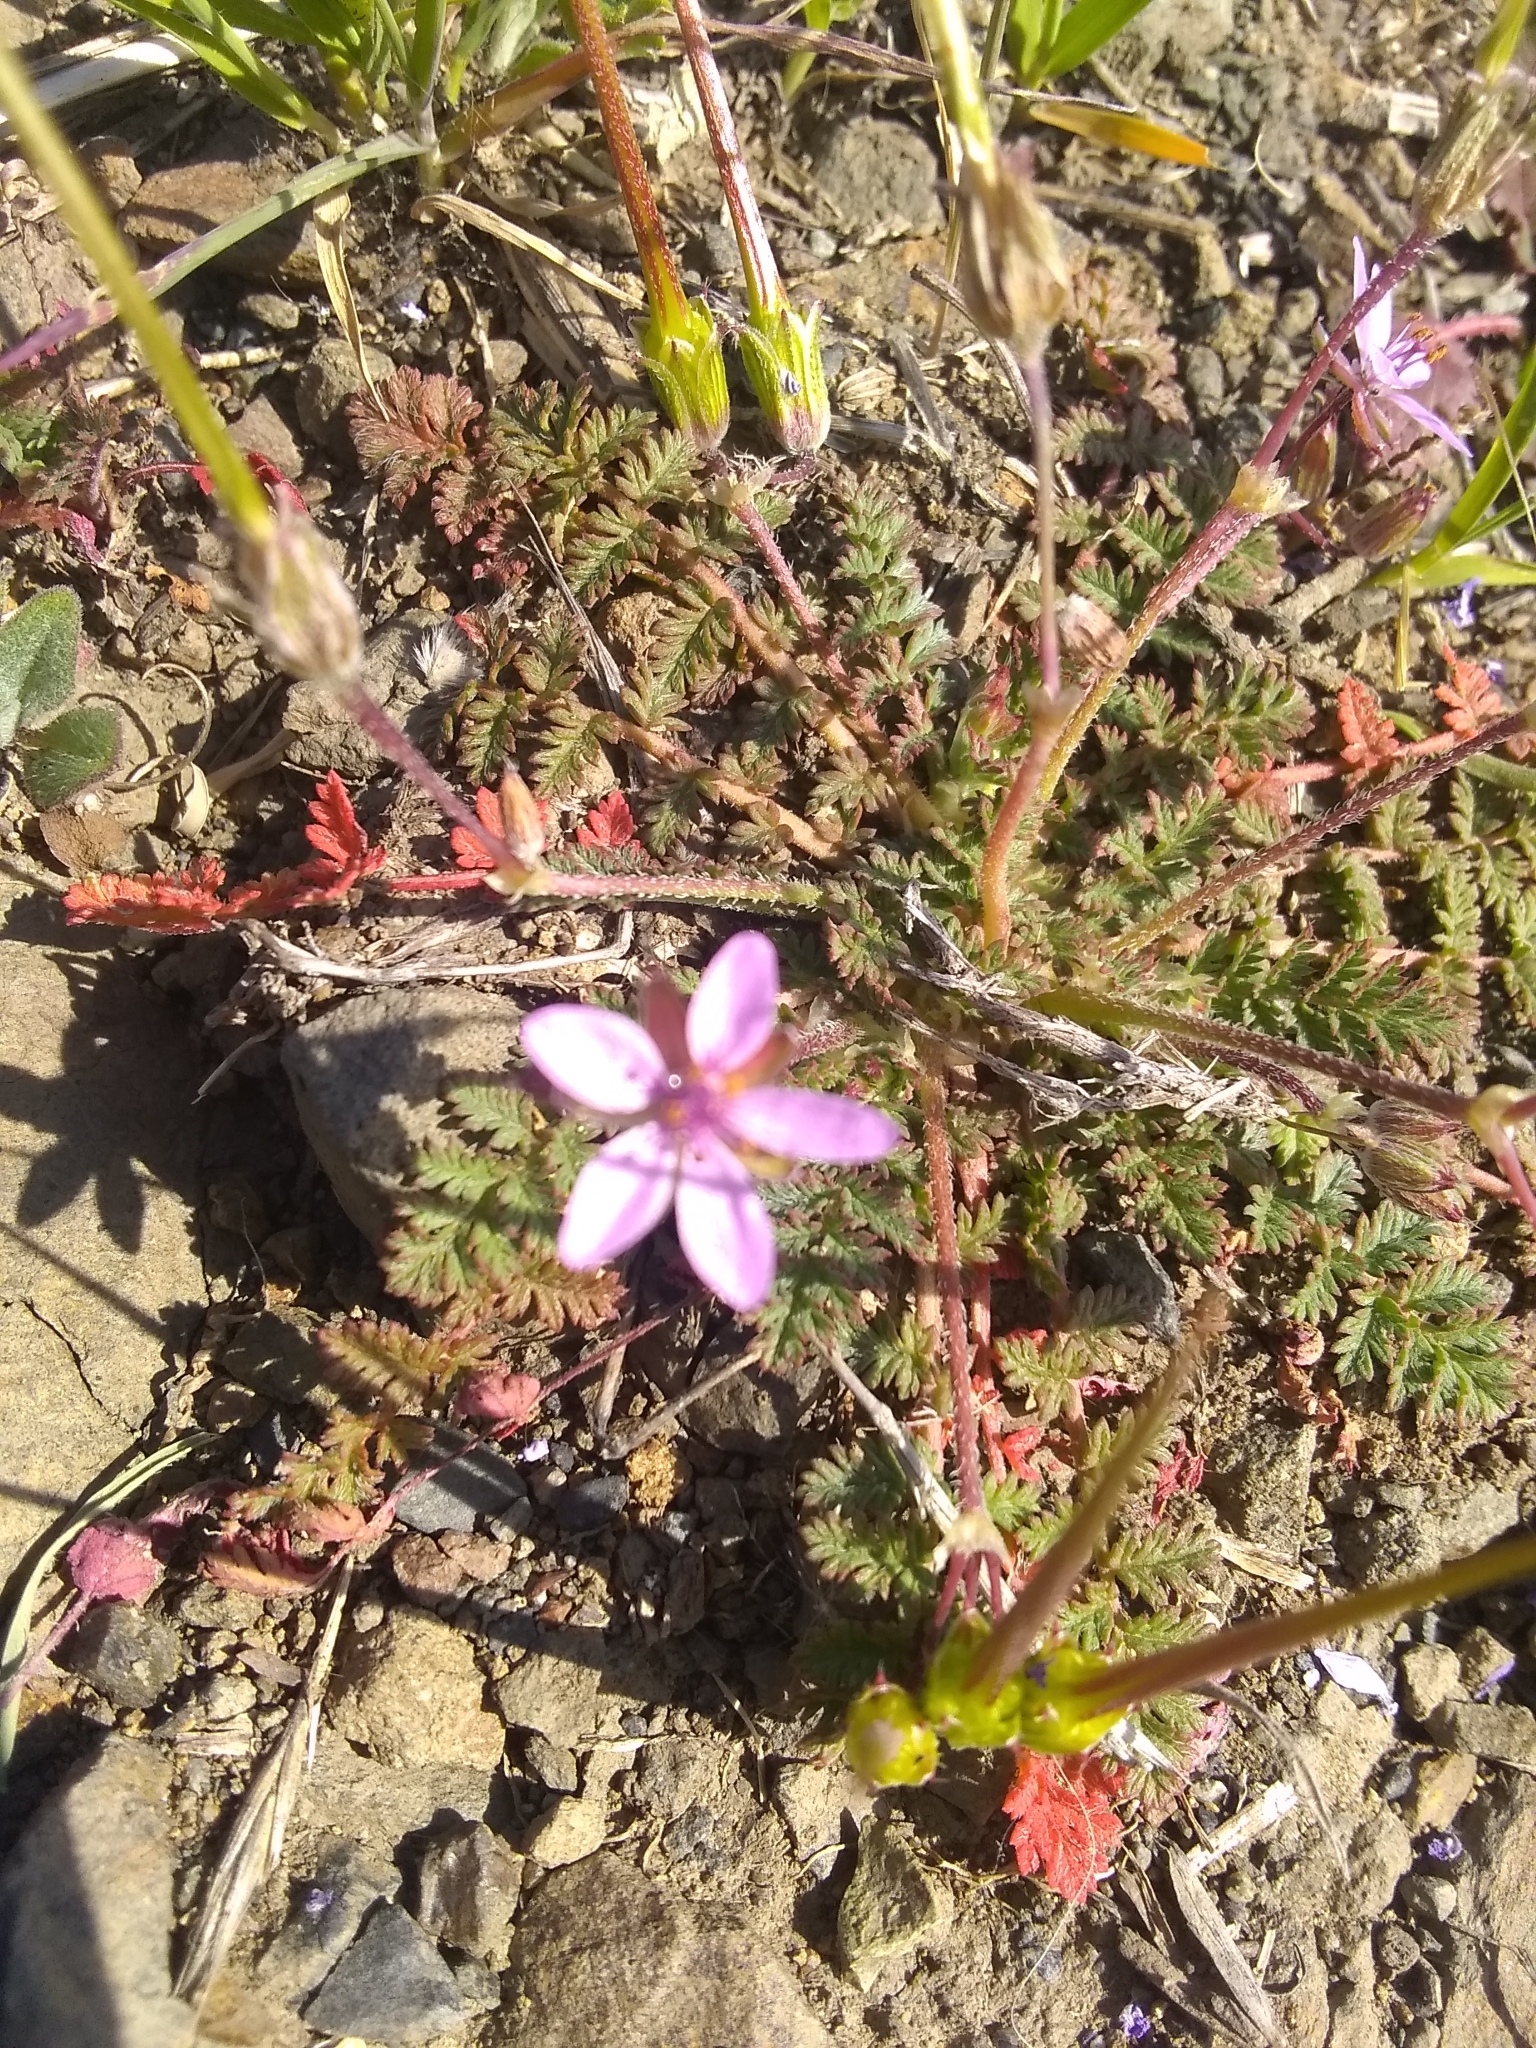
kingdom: Plantae
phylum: Tracheophyta
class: Magnoliopsida
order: Geraniales
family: Geraniaceae
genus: Erodium
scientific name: Erodium cicutarium
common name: Common stork's-bill
